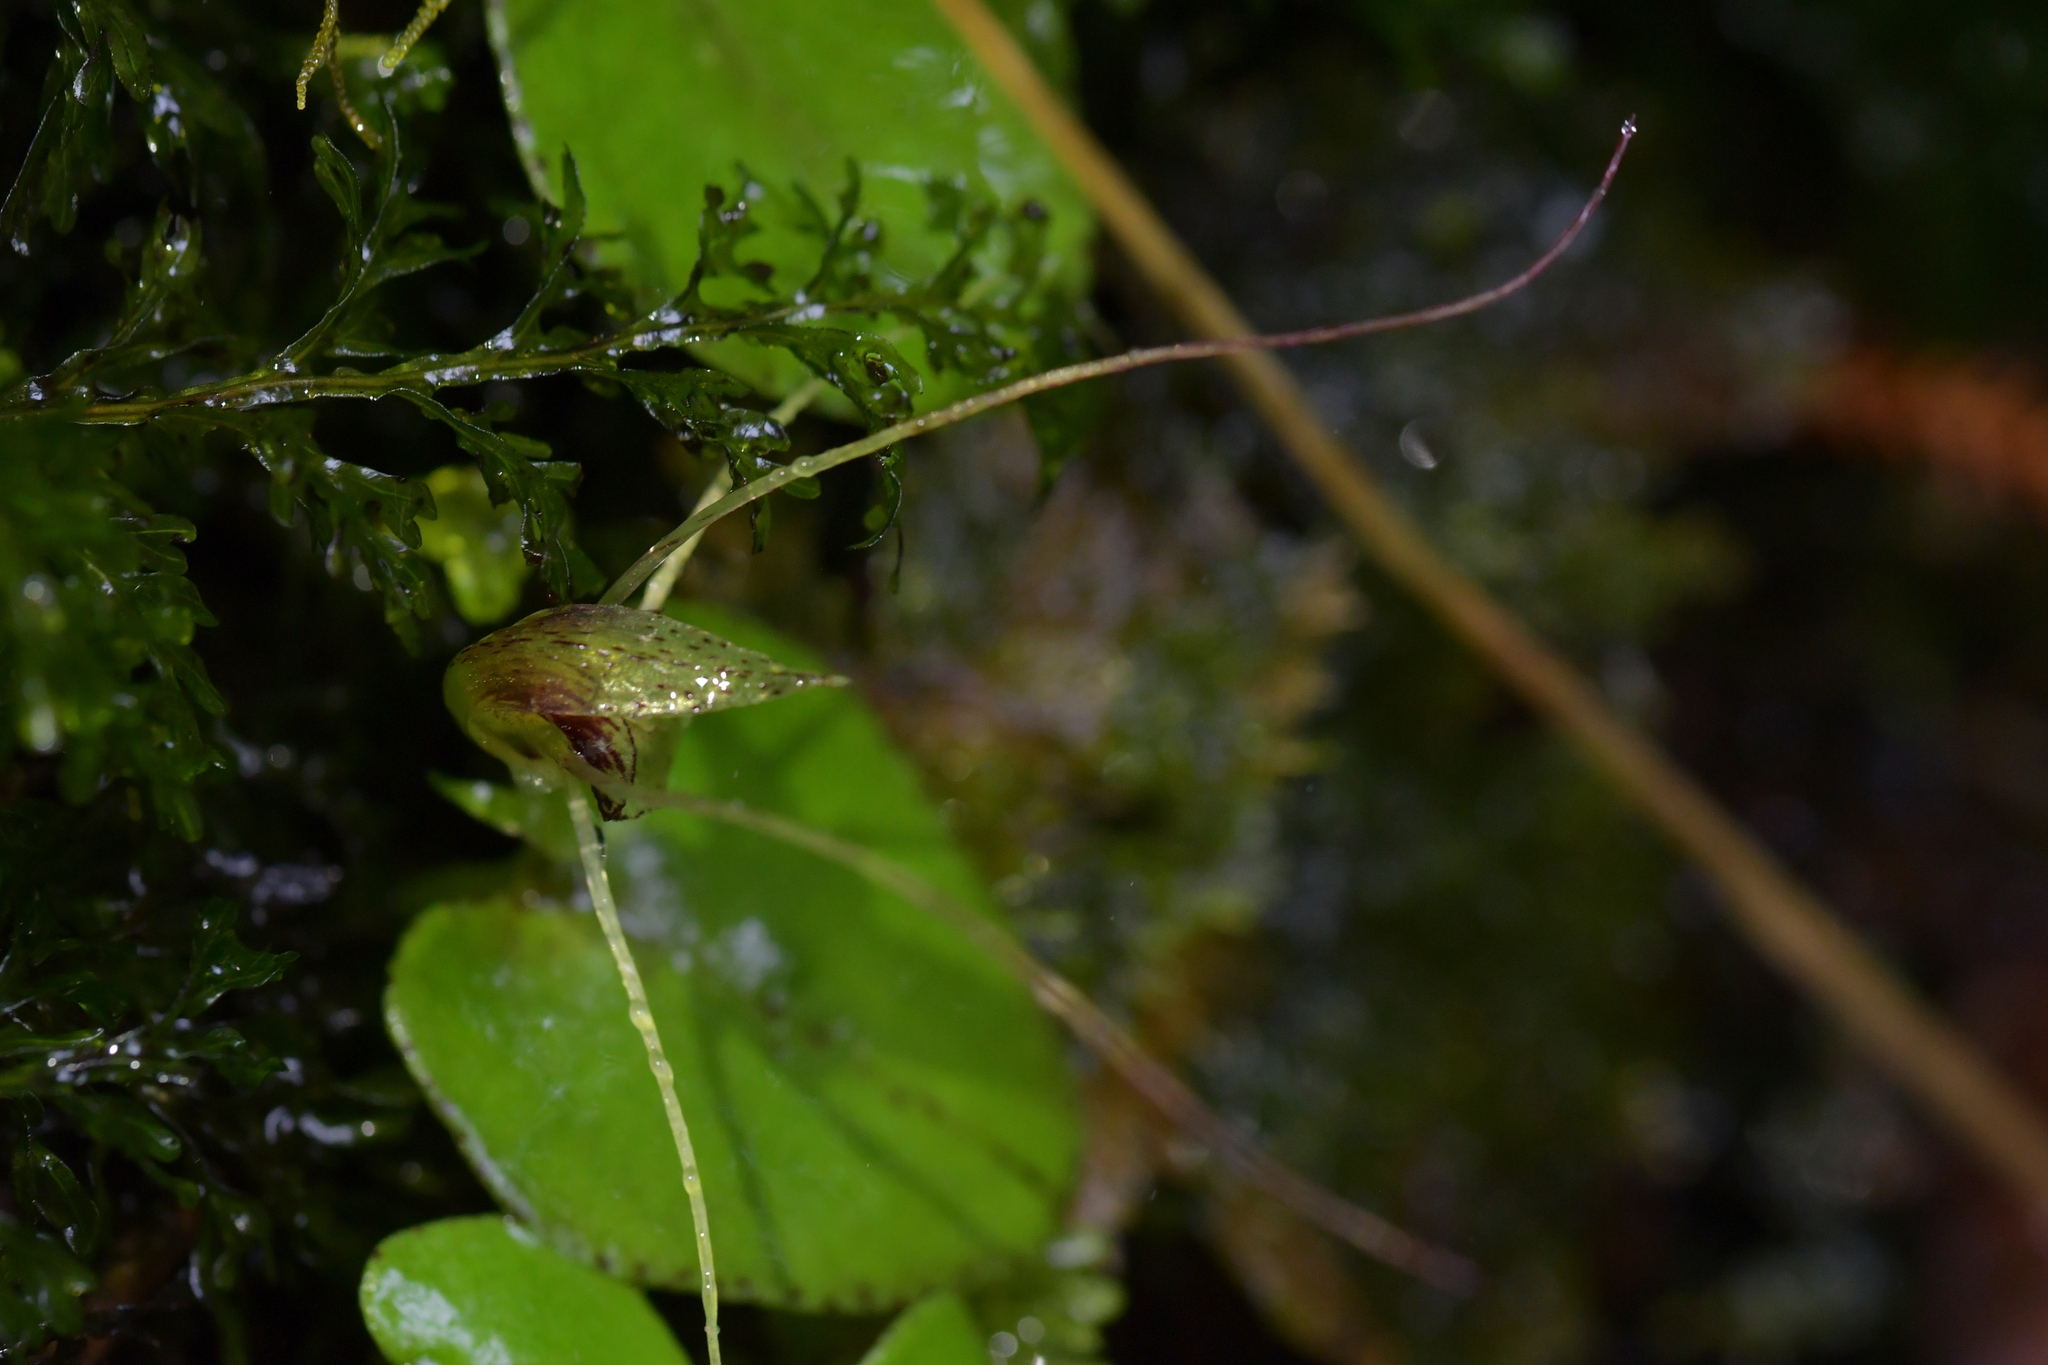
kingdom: Plantae
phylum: Tracheophyta
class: Liliopsida
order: Asparagales
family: Orchidaceae
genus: Corybas
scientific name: Corybas rivularis
